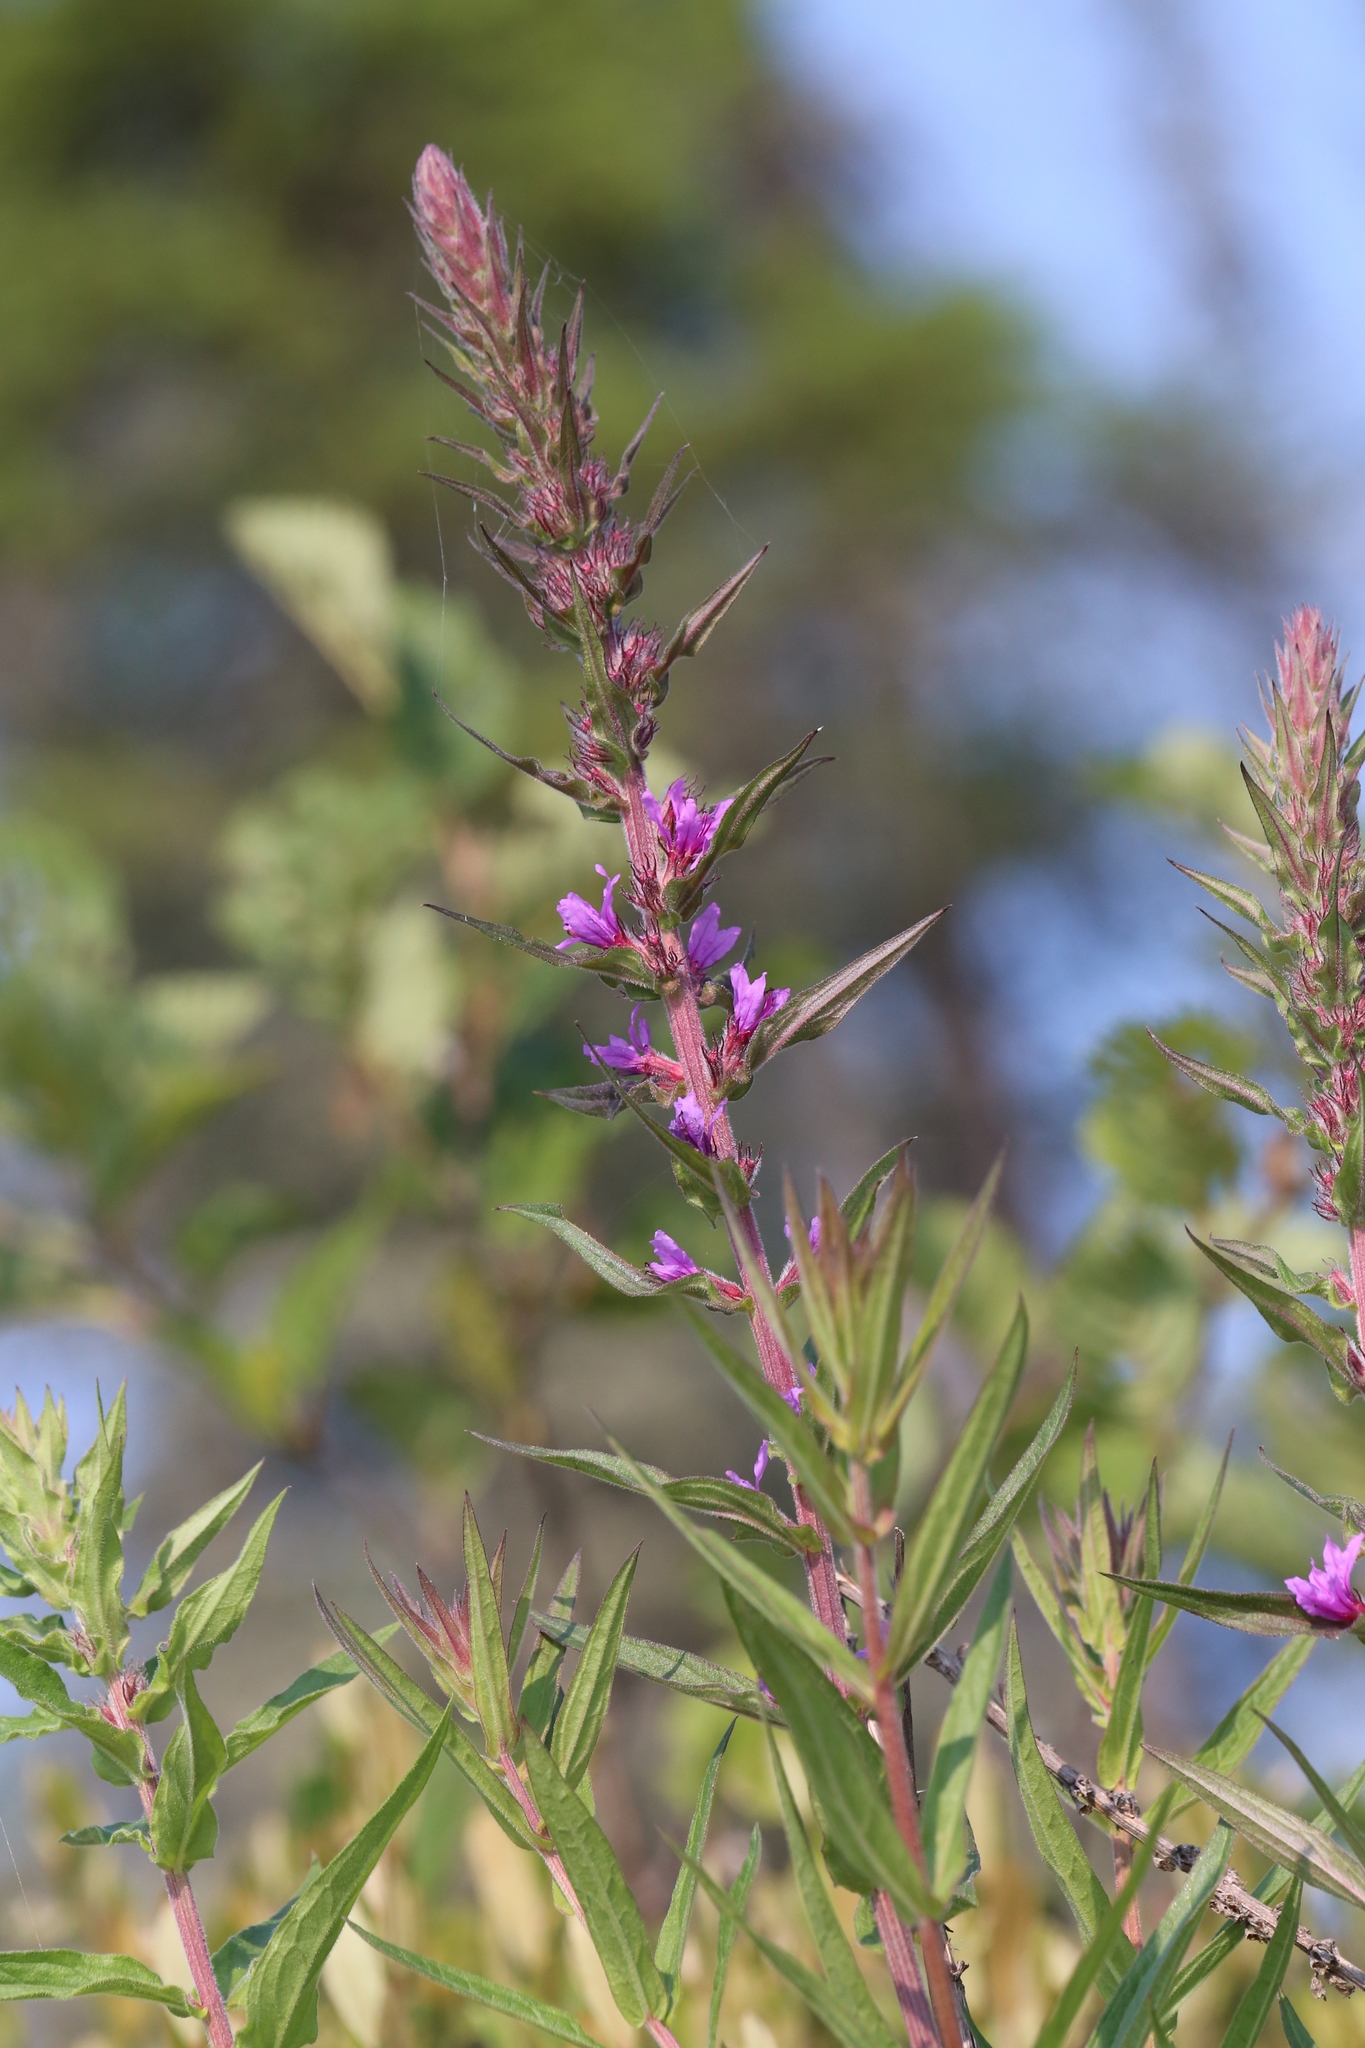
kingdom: Plantae
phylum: Tracheophyta
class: Magnoliopsida
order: Myrtales
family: Lythraceae
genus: Lythrum
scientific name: Lythrum salicaria
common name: Purple loosestrife
